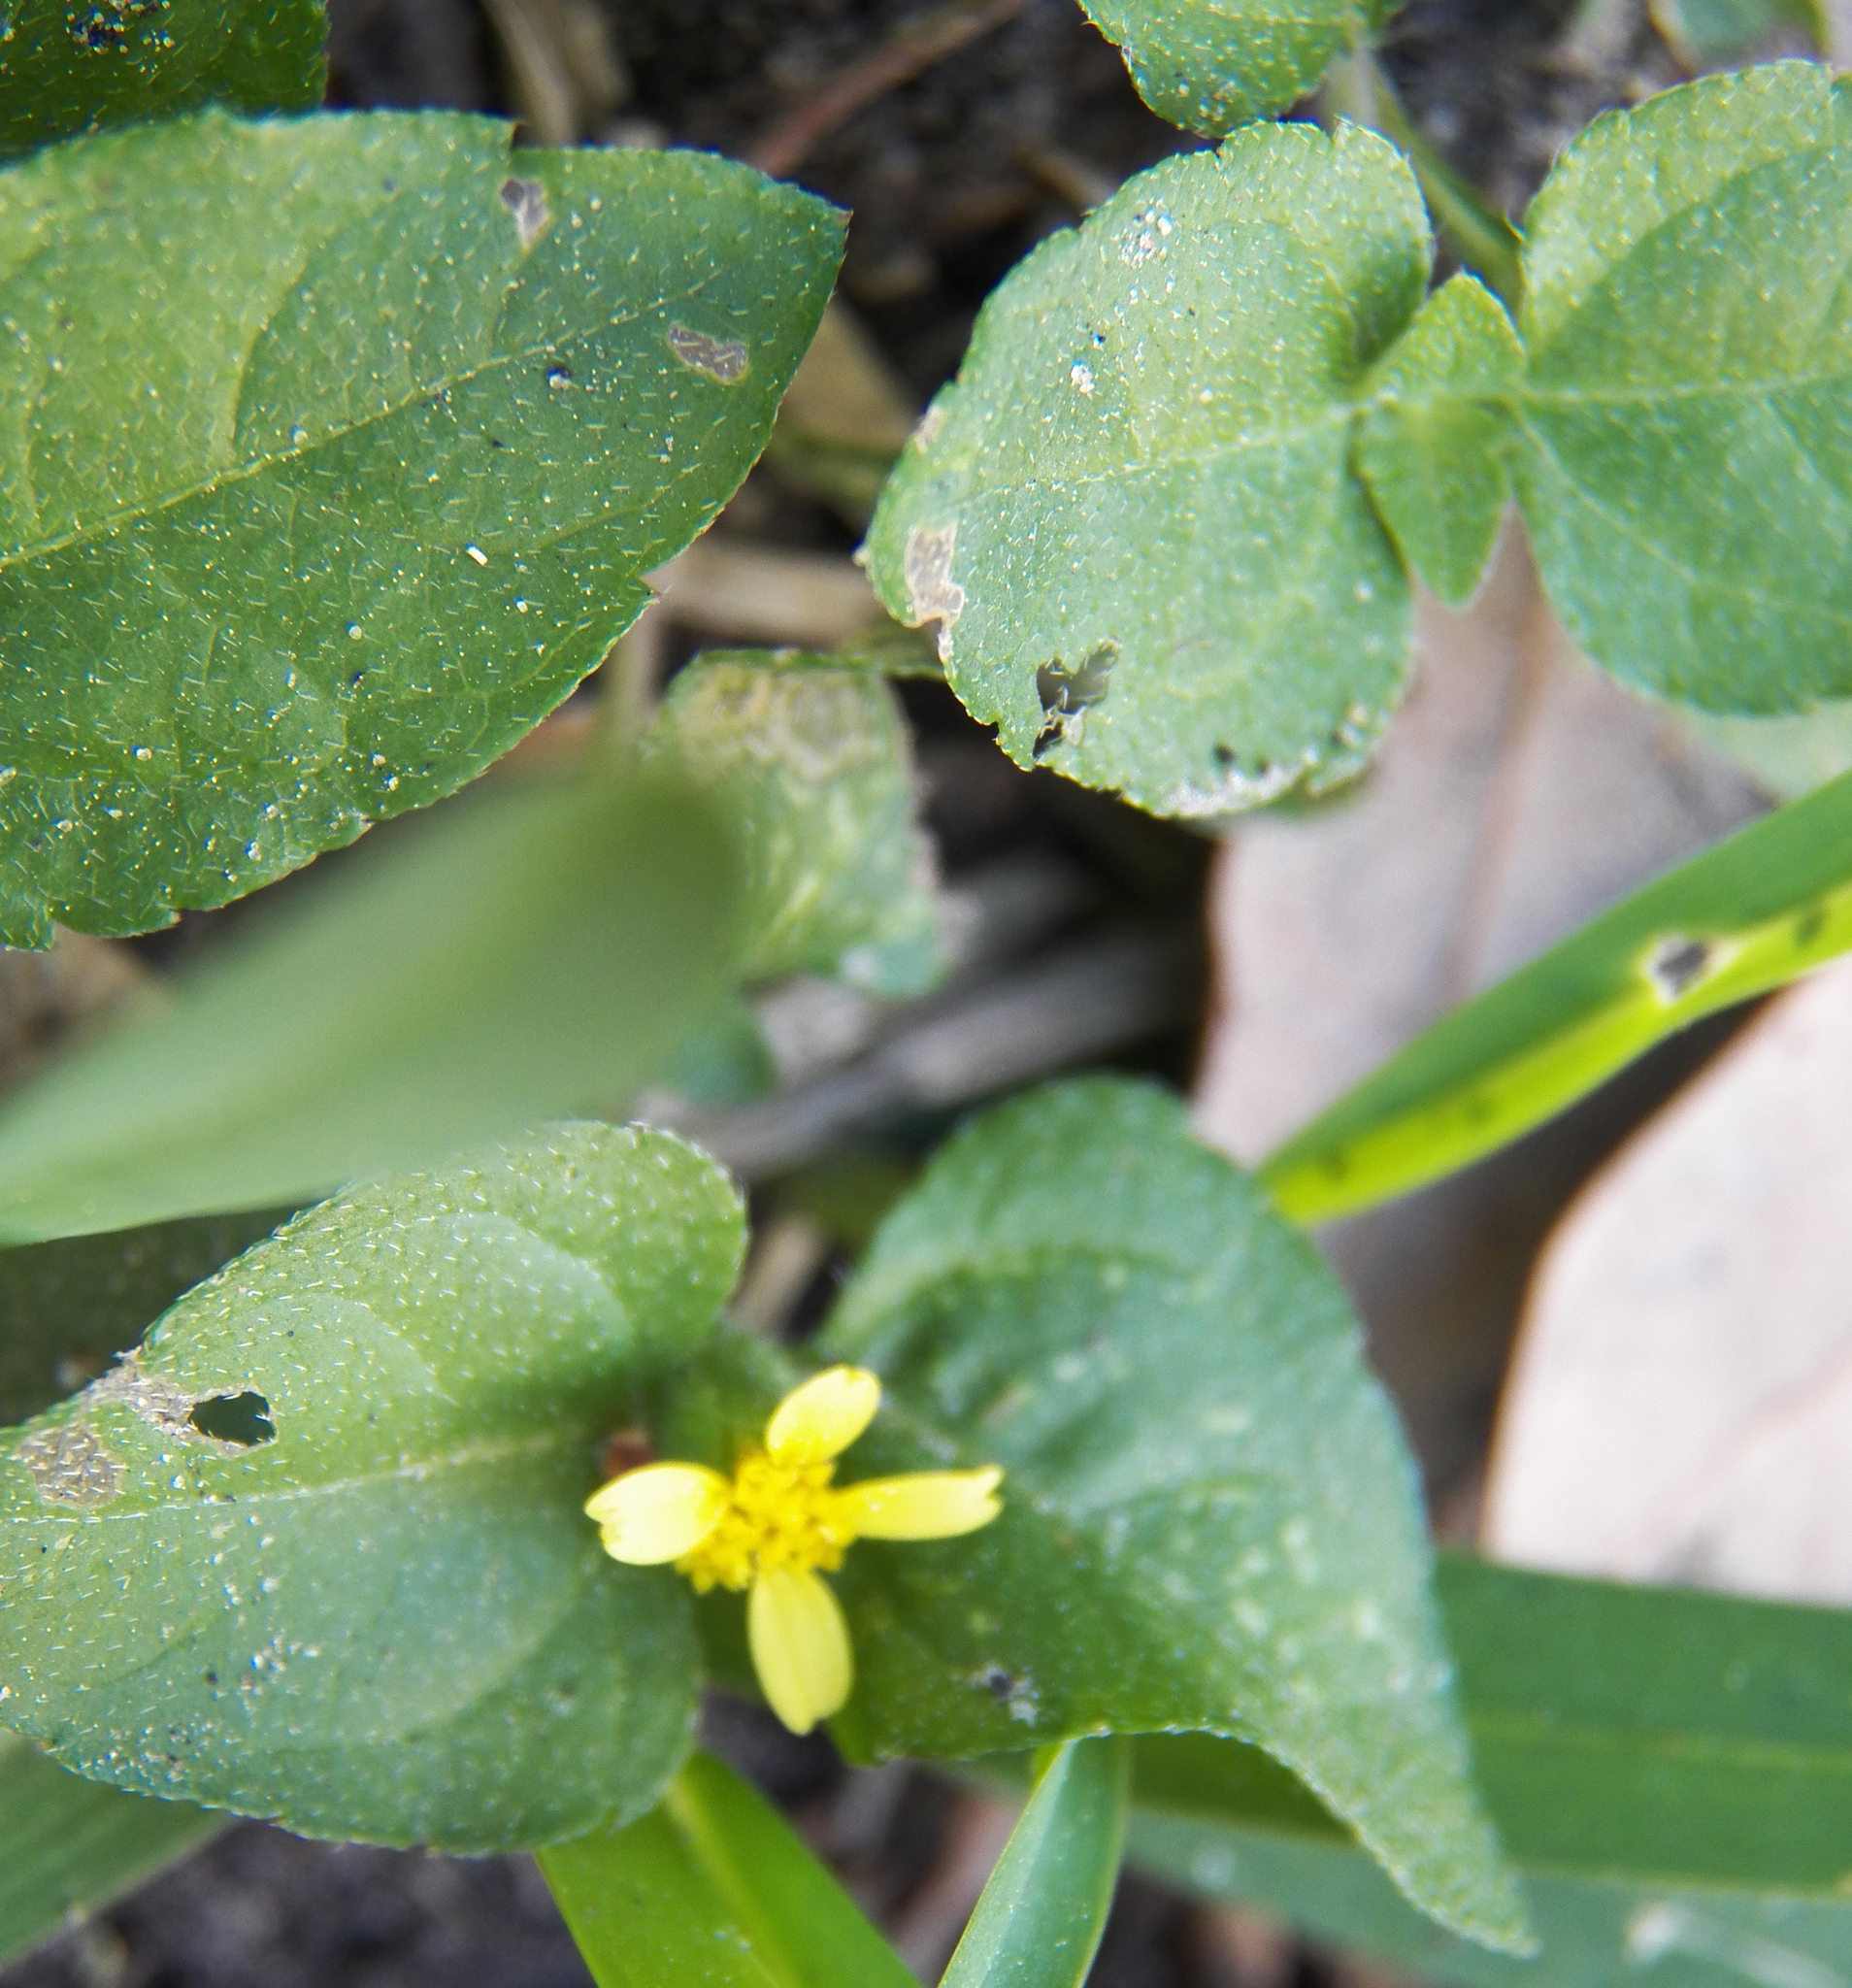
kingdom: Plantae
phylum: Tracheophyta
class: Magnoliopsida
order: Asterales
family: Asteraceae
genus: Calyptocarpus
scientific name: Calyptocarpus vialis
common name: Straggler daisy
